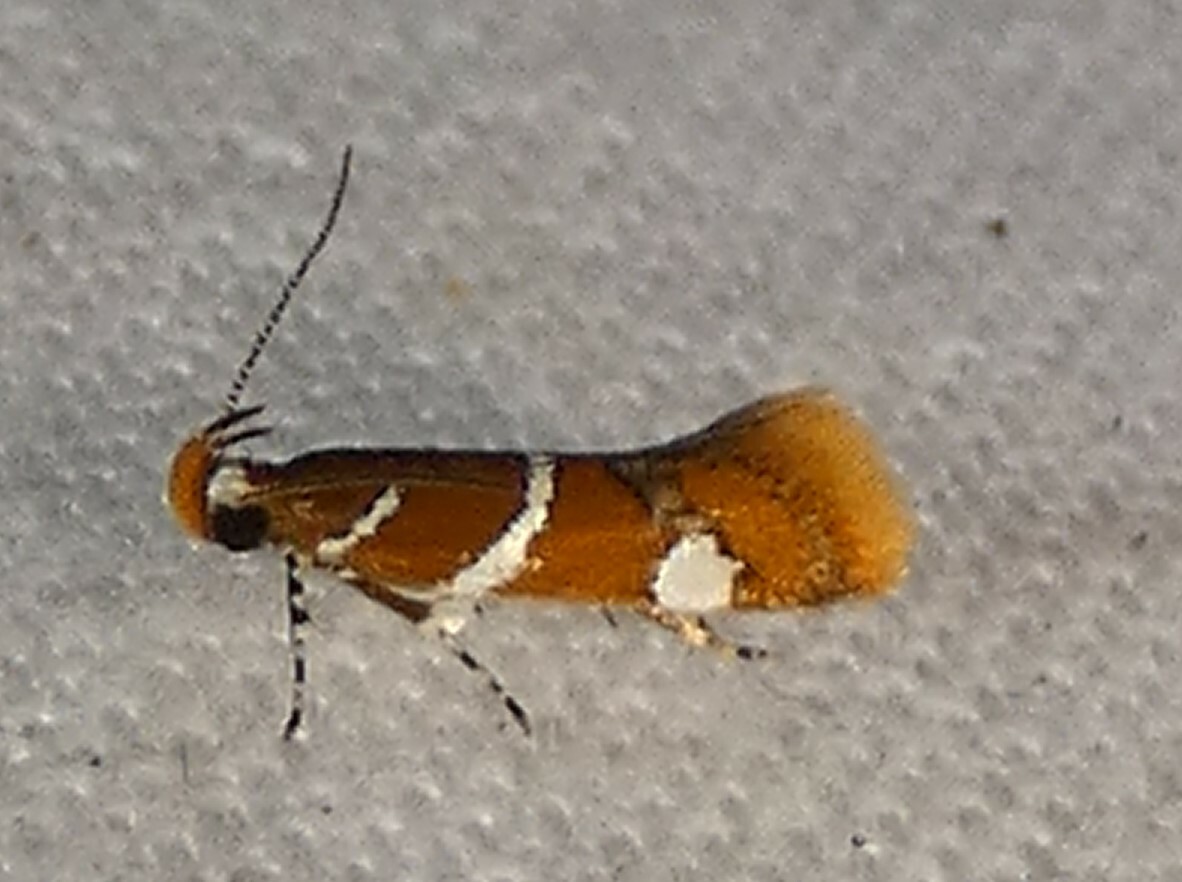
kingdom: Animalia
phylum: Arthropoda
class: Insecta
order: Lepidoptera
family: Oecophoridae
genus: Promalactis
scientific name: Promalactis suzukiella
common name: Moth
